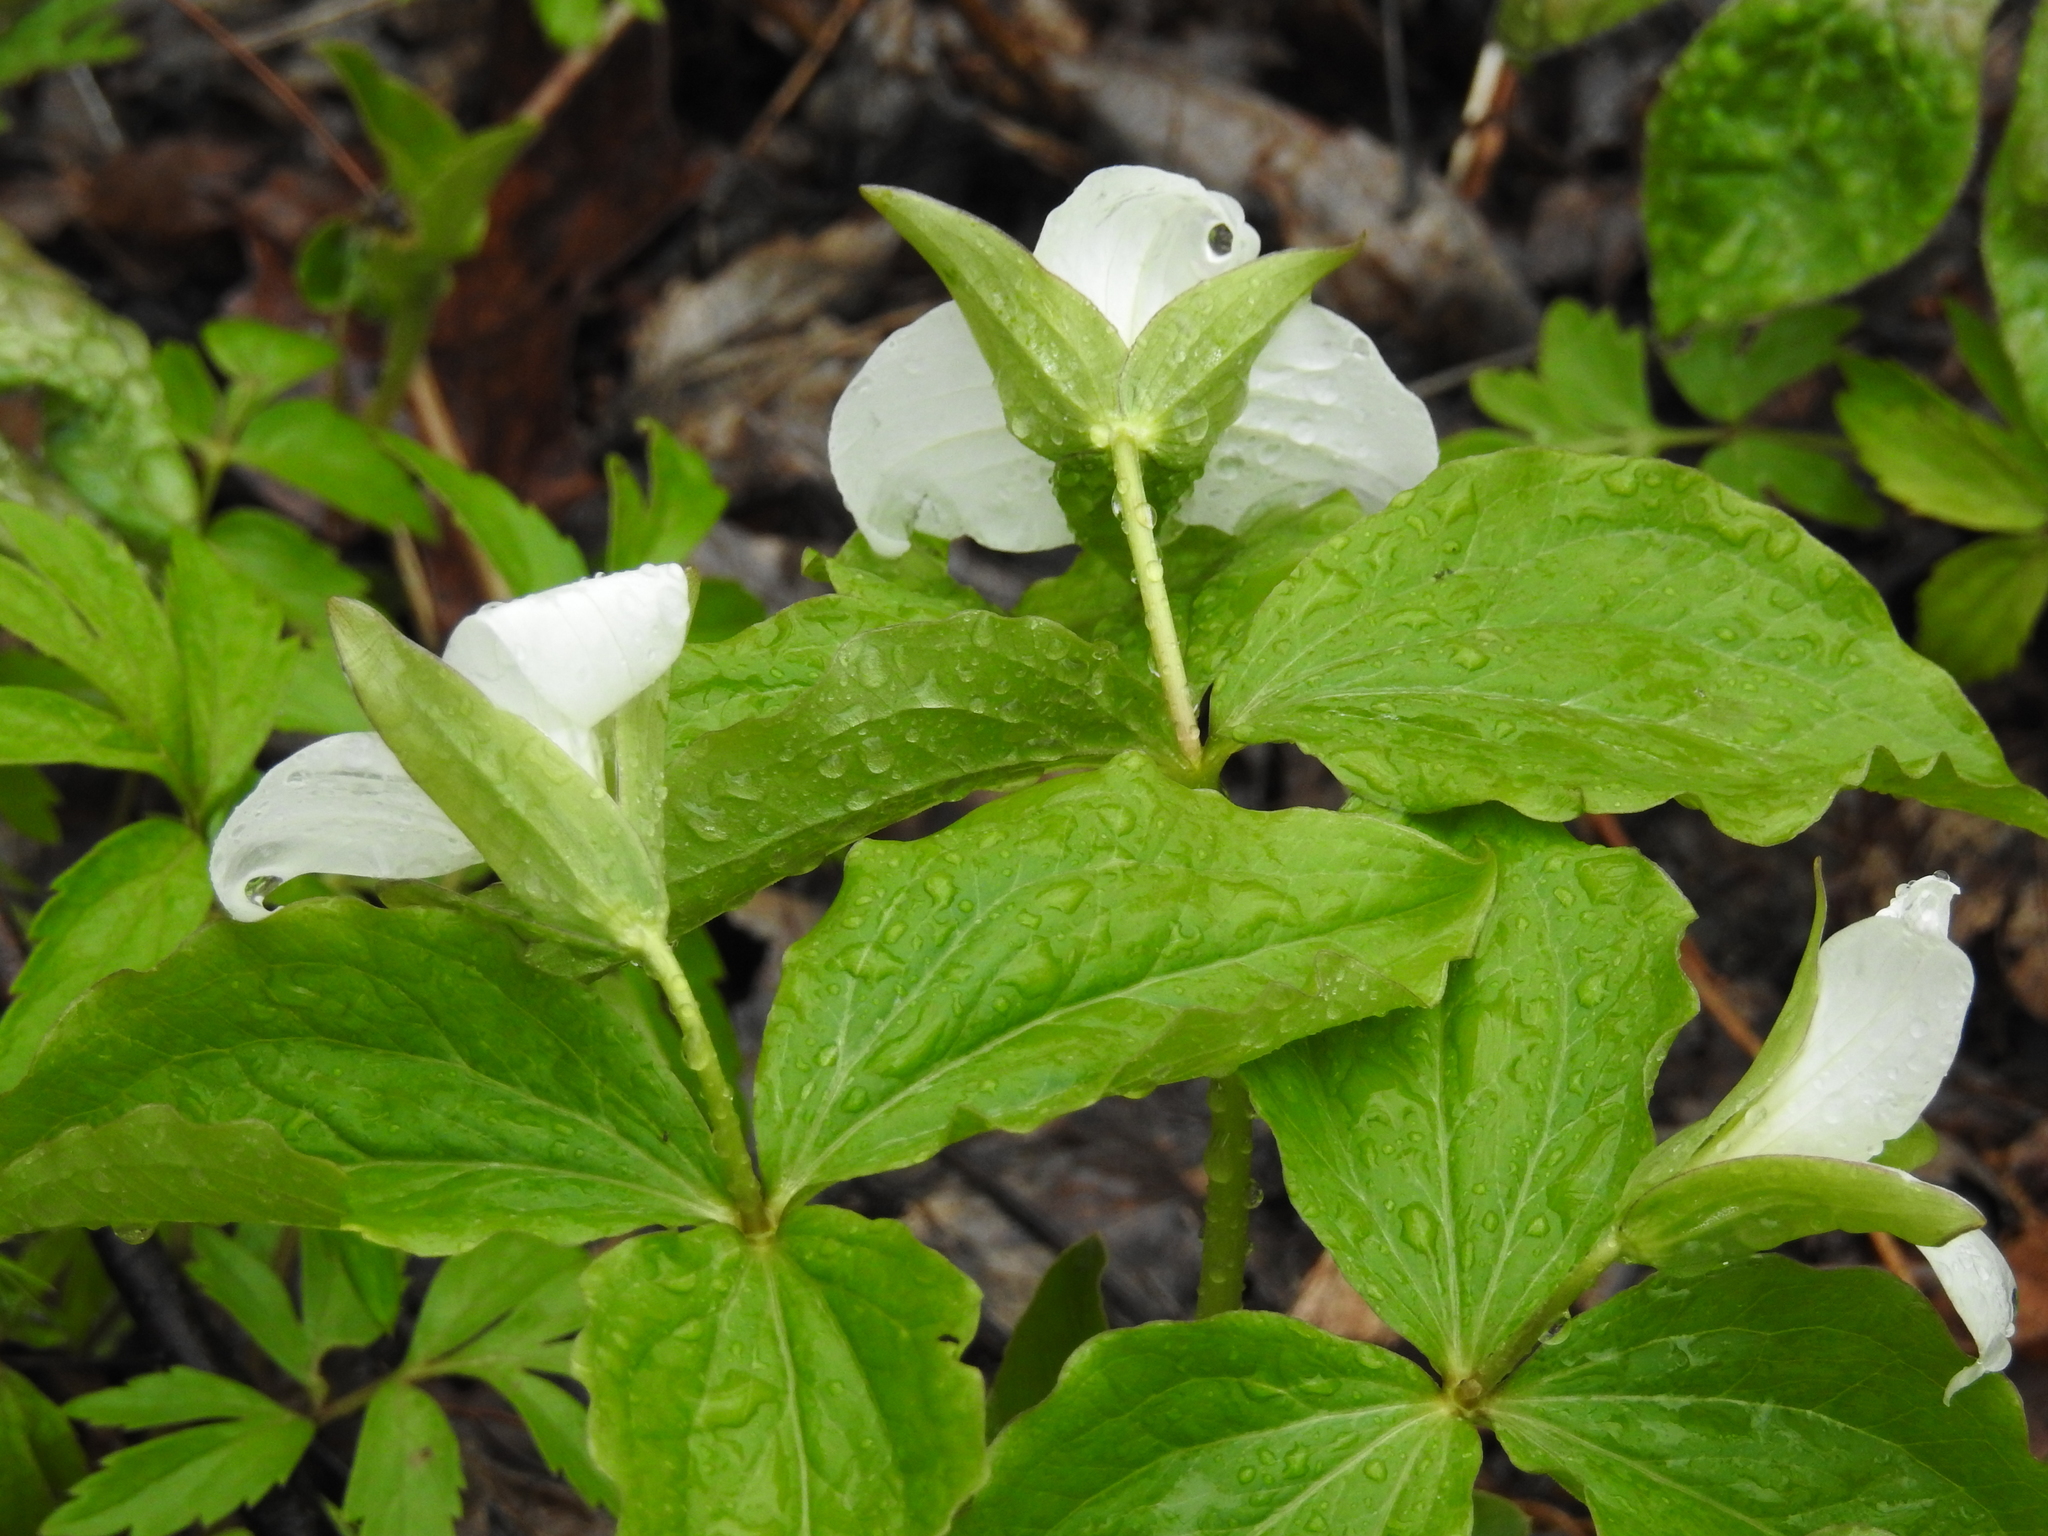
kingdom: Plantae
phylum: Tracheophyta
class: Liliopsida
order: Liliales
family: Melanthiaceae
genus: Trillium
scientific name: Trillium grandiflorum
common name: Great white trillium
